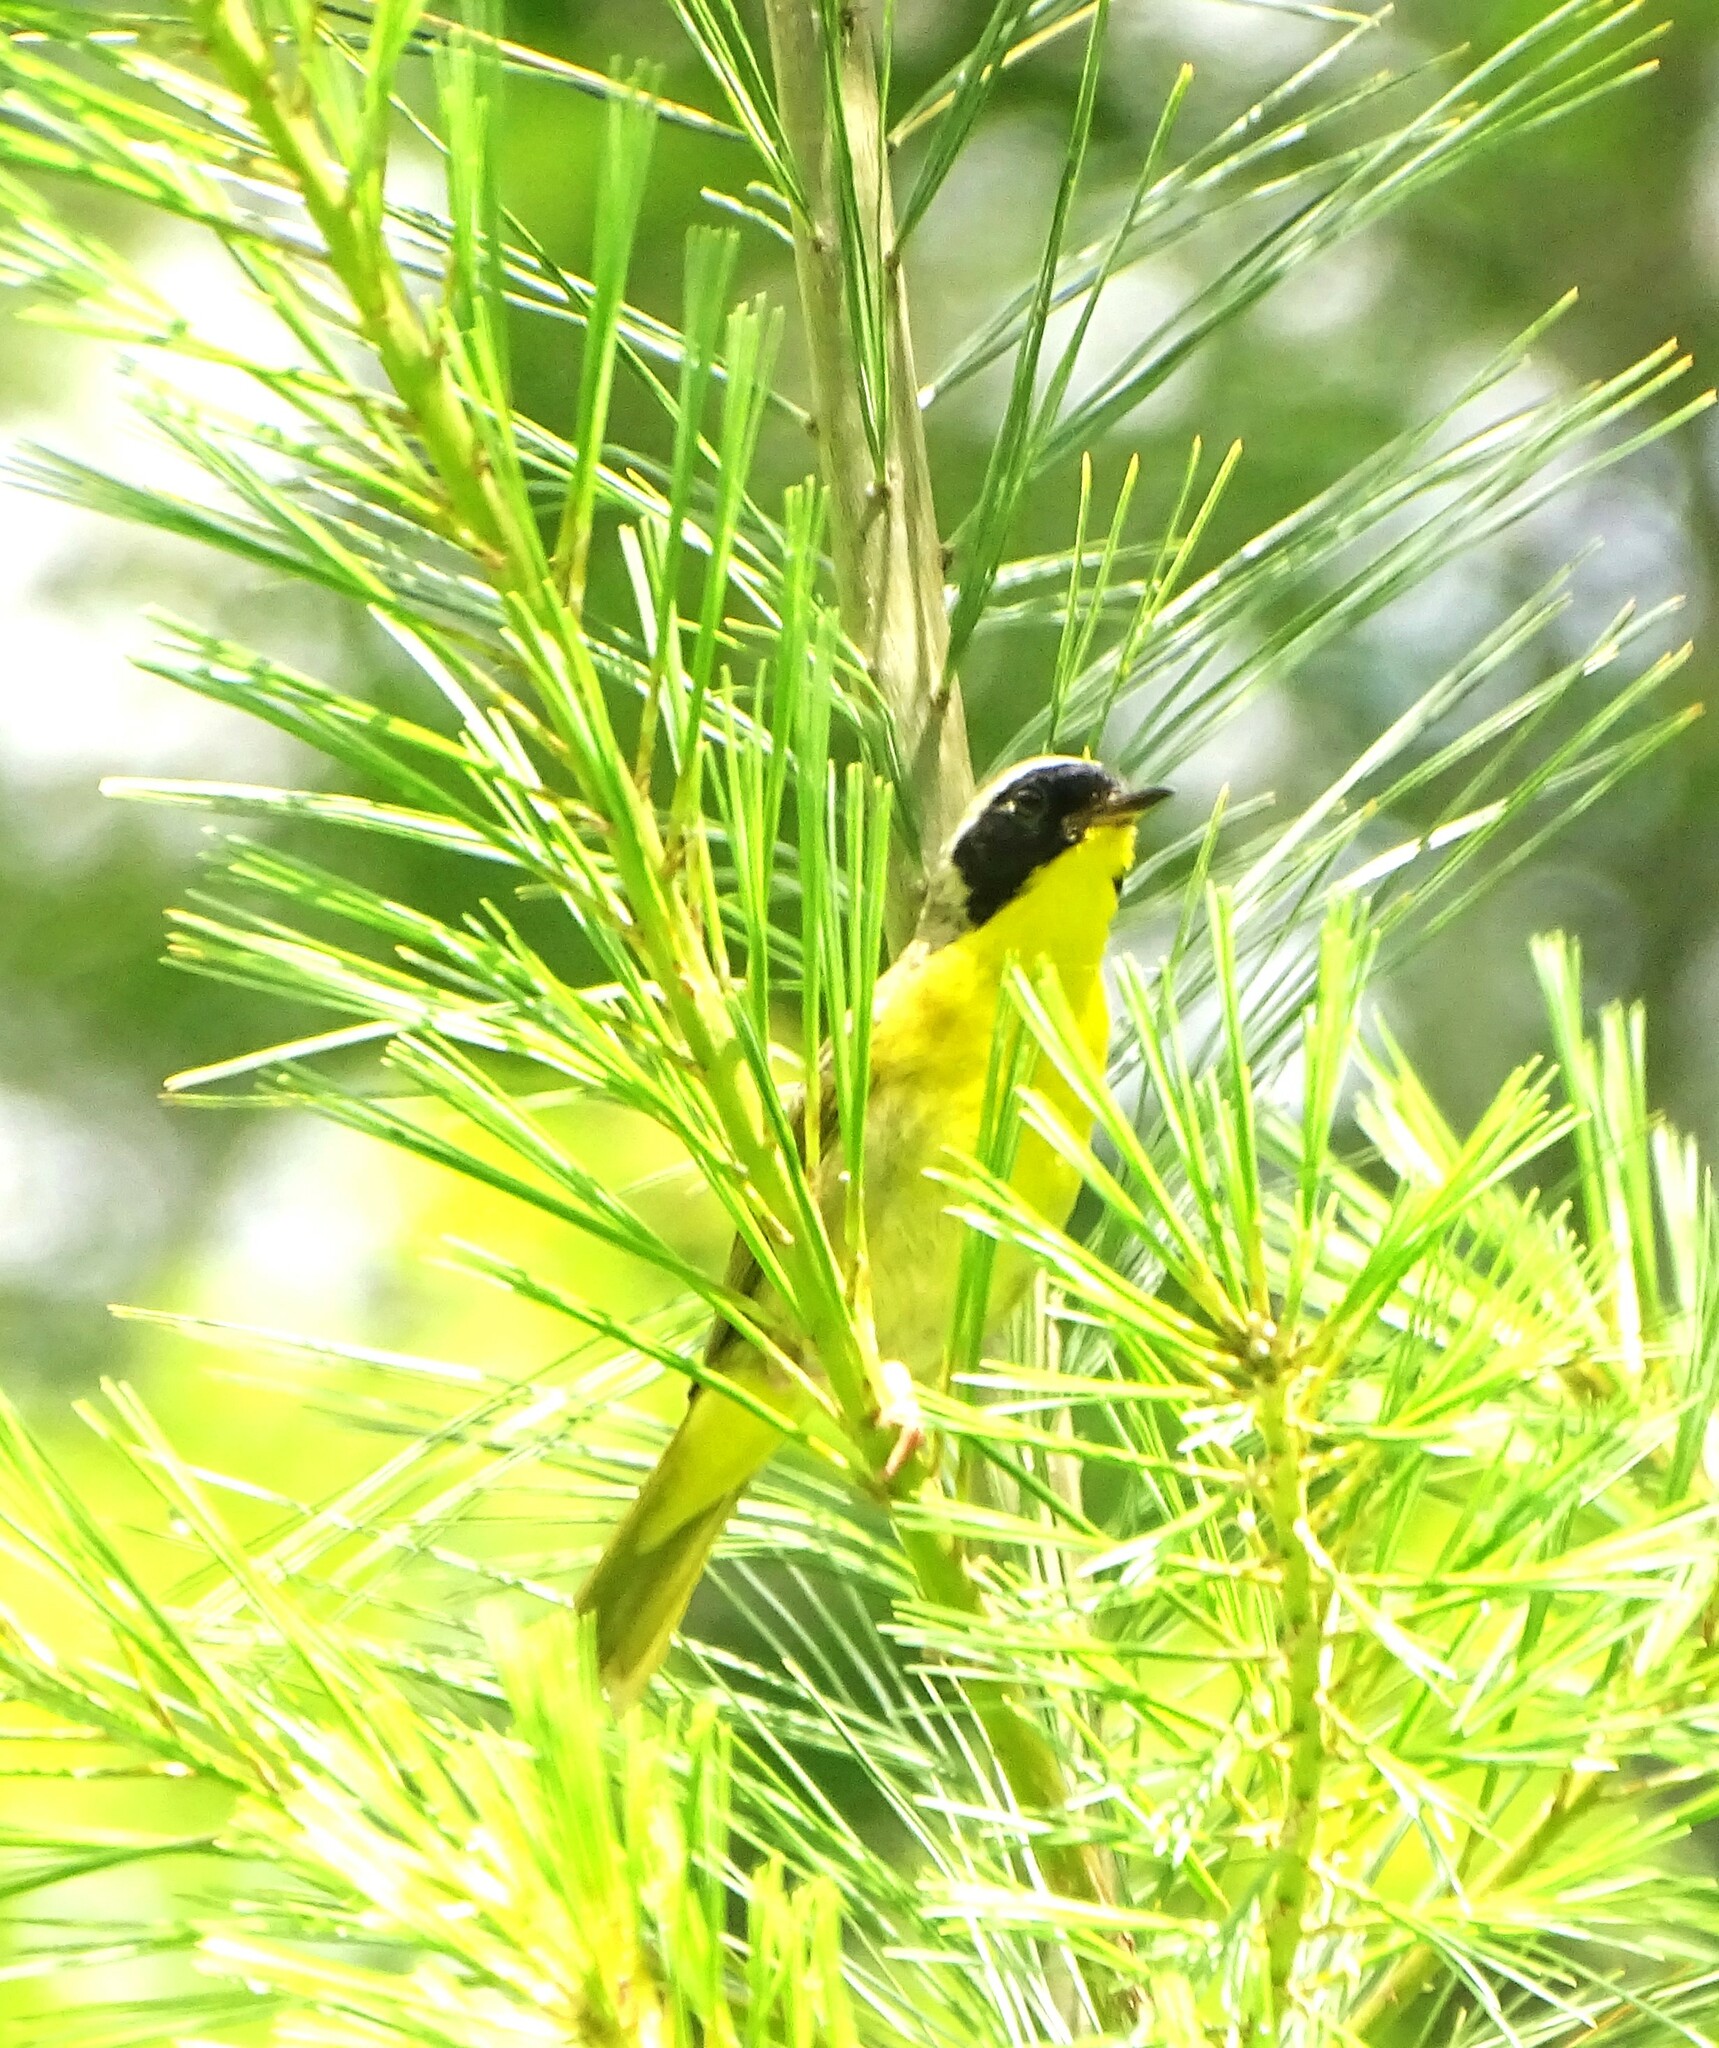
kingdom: Animalia
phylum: Chordata
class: Aves
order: Passeriformes
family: Parulidae
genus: Geothlypis
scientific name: Geothlypis trichas
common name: Common yellowthroat
